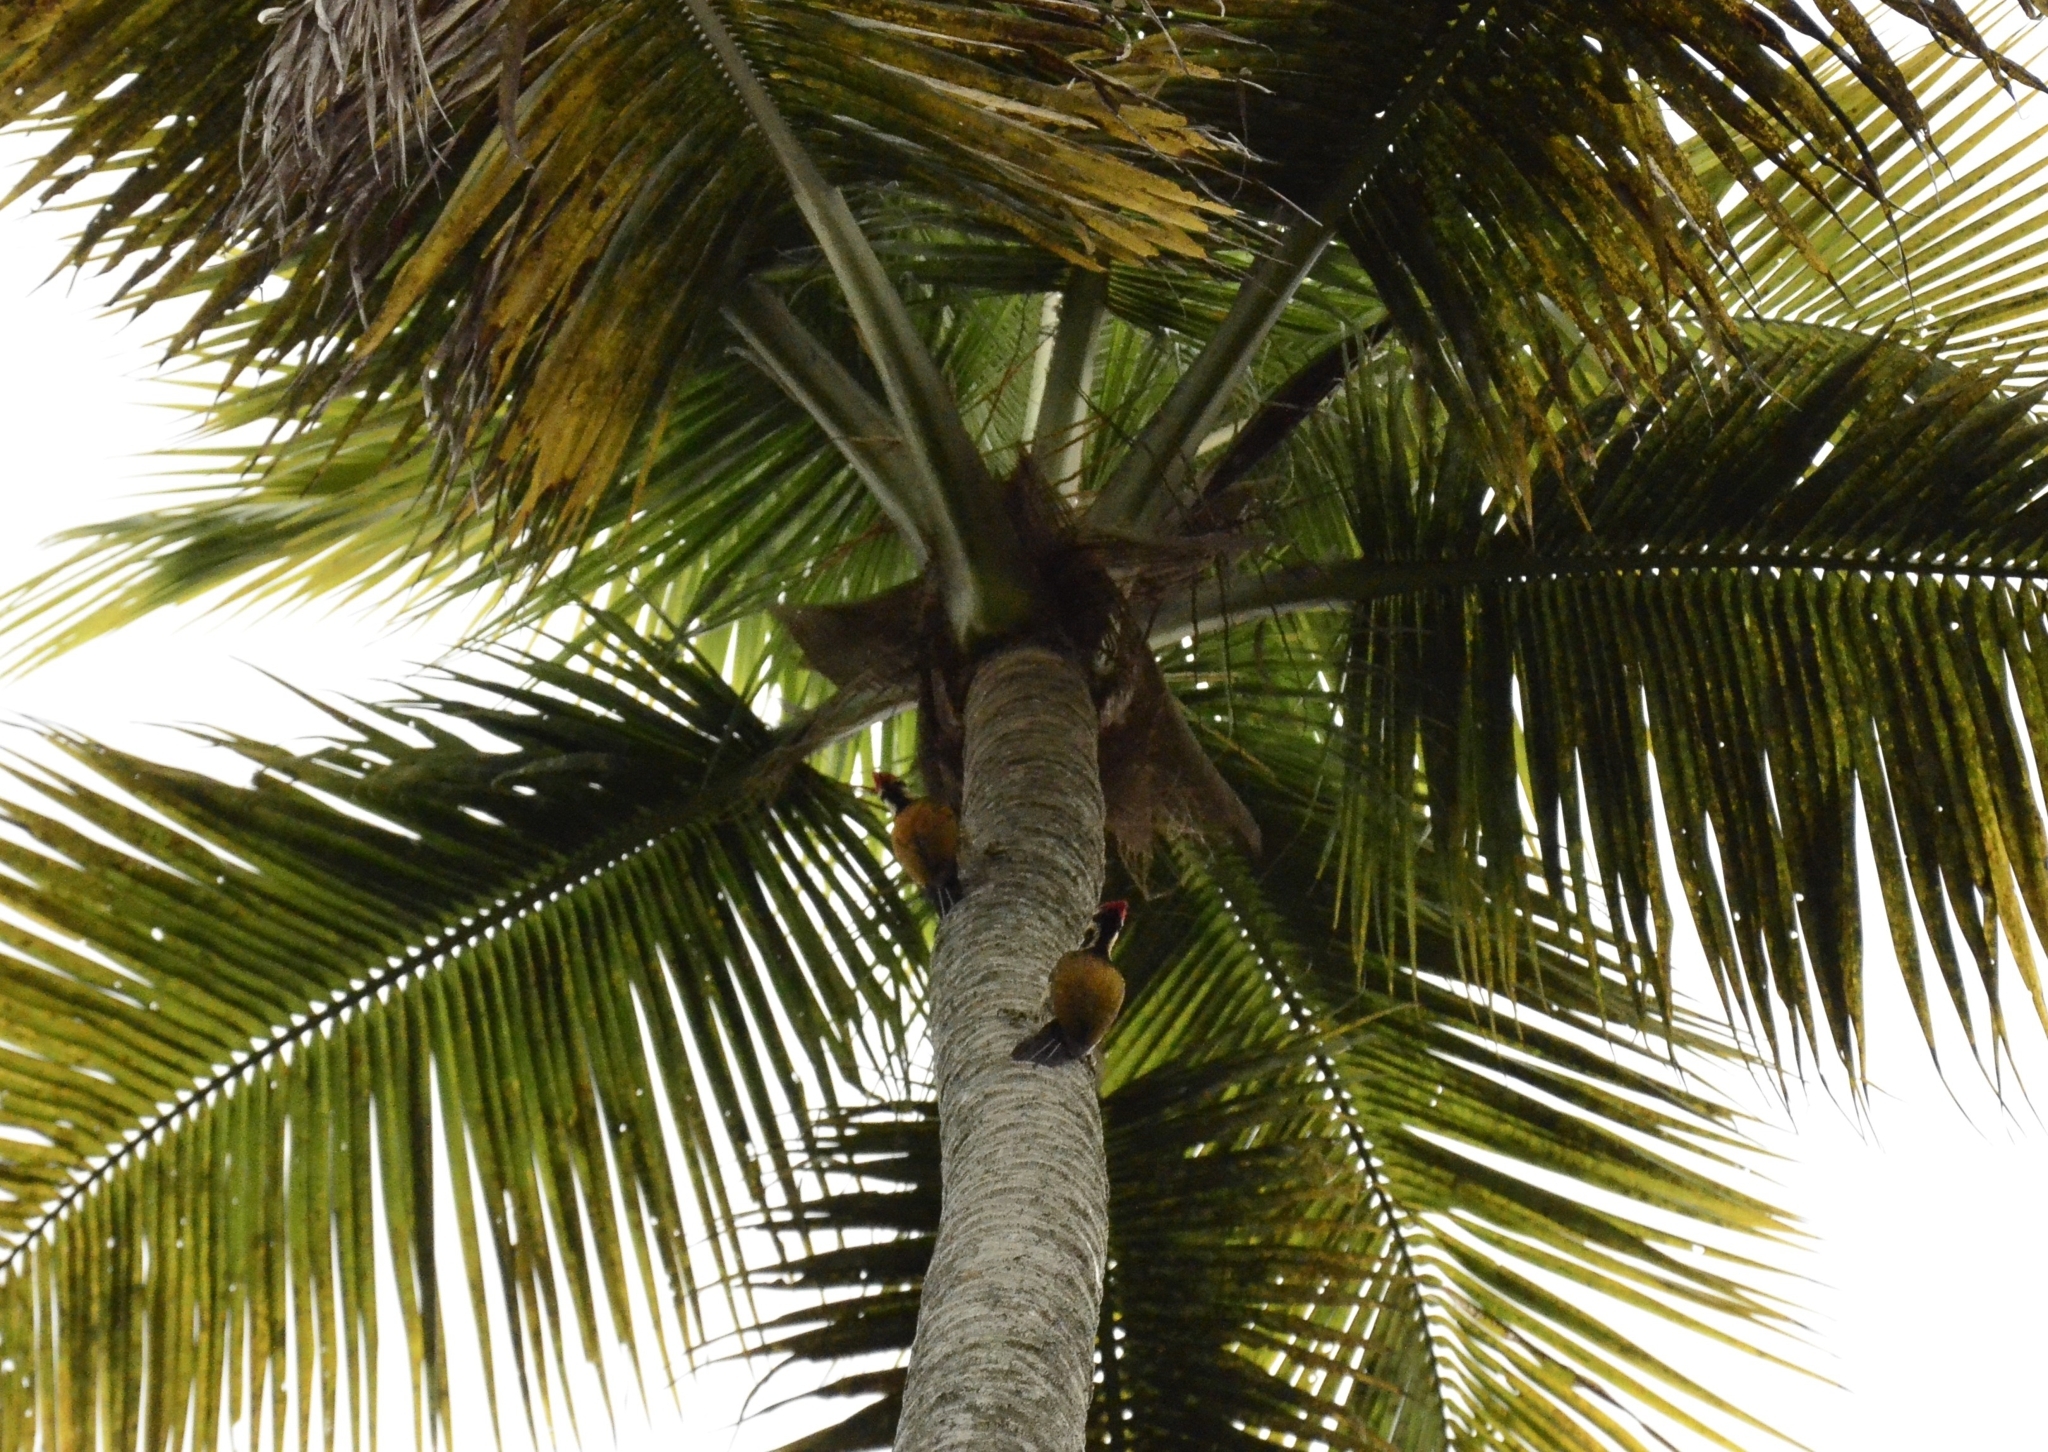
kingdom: Animalia
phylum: Chordata
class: Aves
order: Piciformes
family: Picidae
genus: Dinopium
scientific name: Dinopium benghalense
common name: Black-rumped flameback
